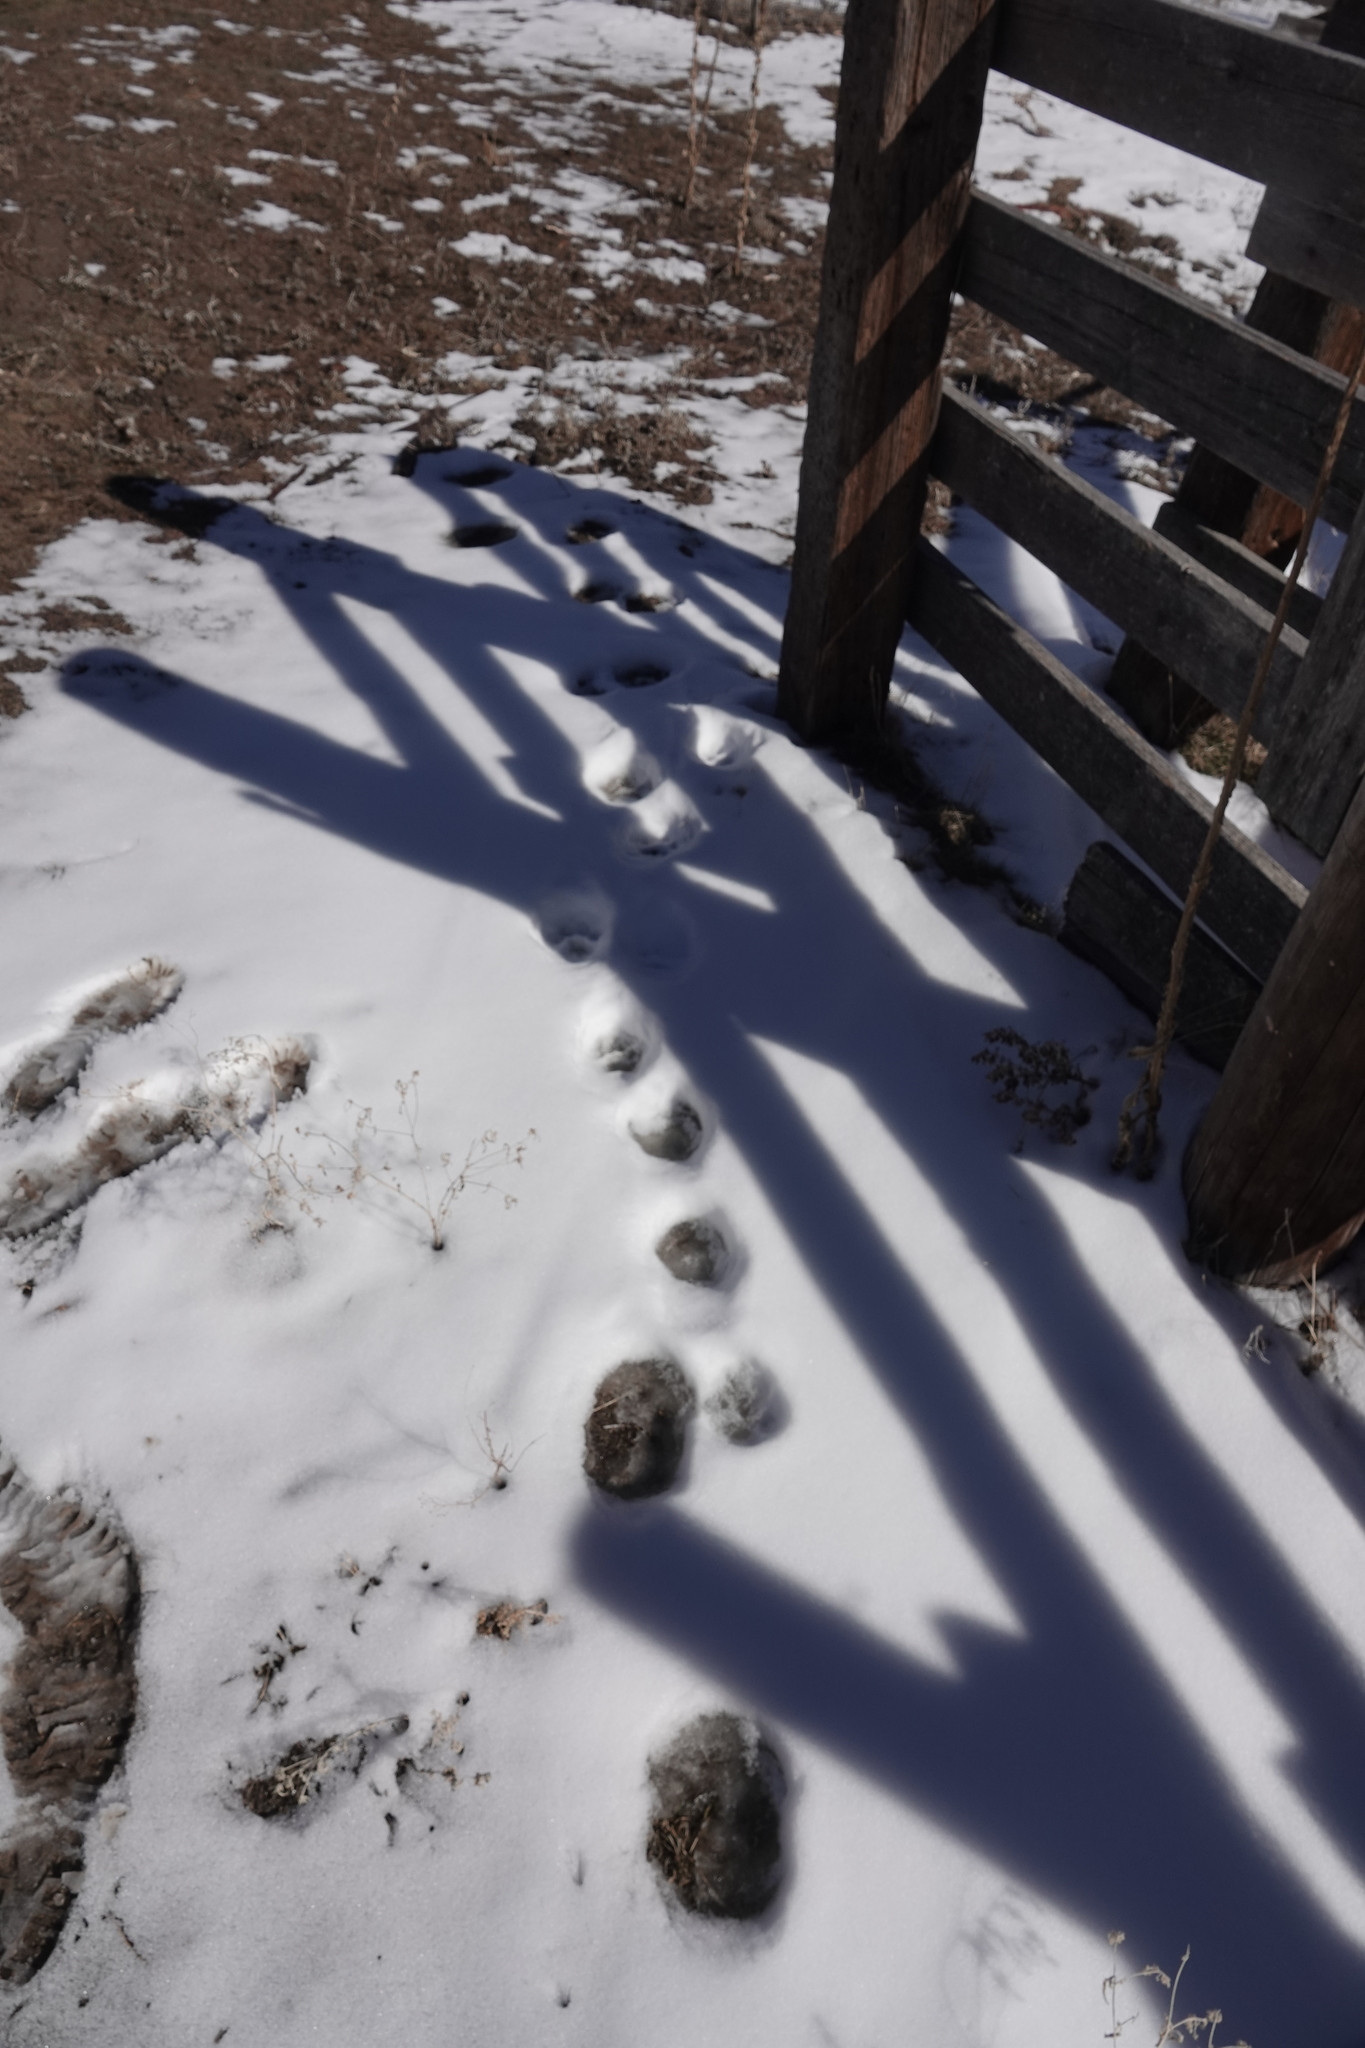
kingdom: Animalia
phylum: Chordata
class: Mammalia
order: Carnivora
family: Felidae
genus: Puma
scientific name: Puma concolor
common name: Puma
